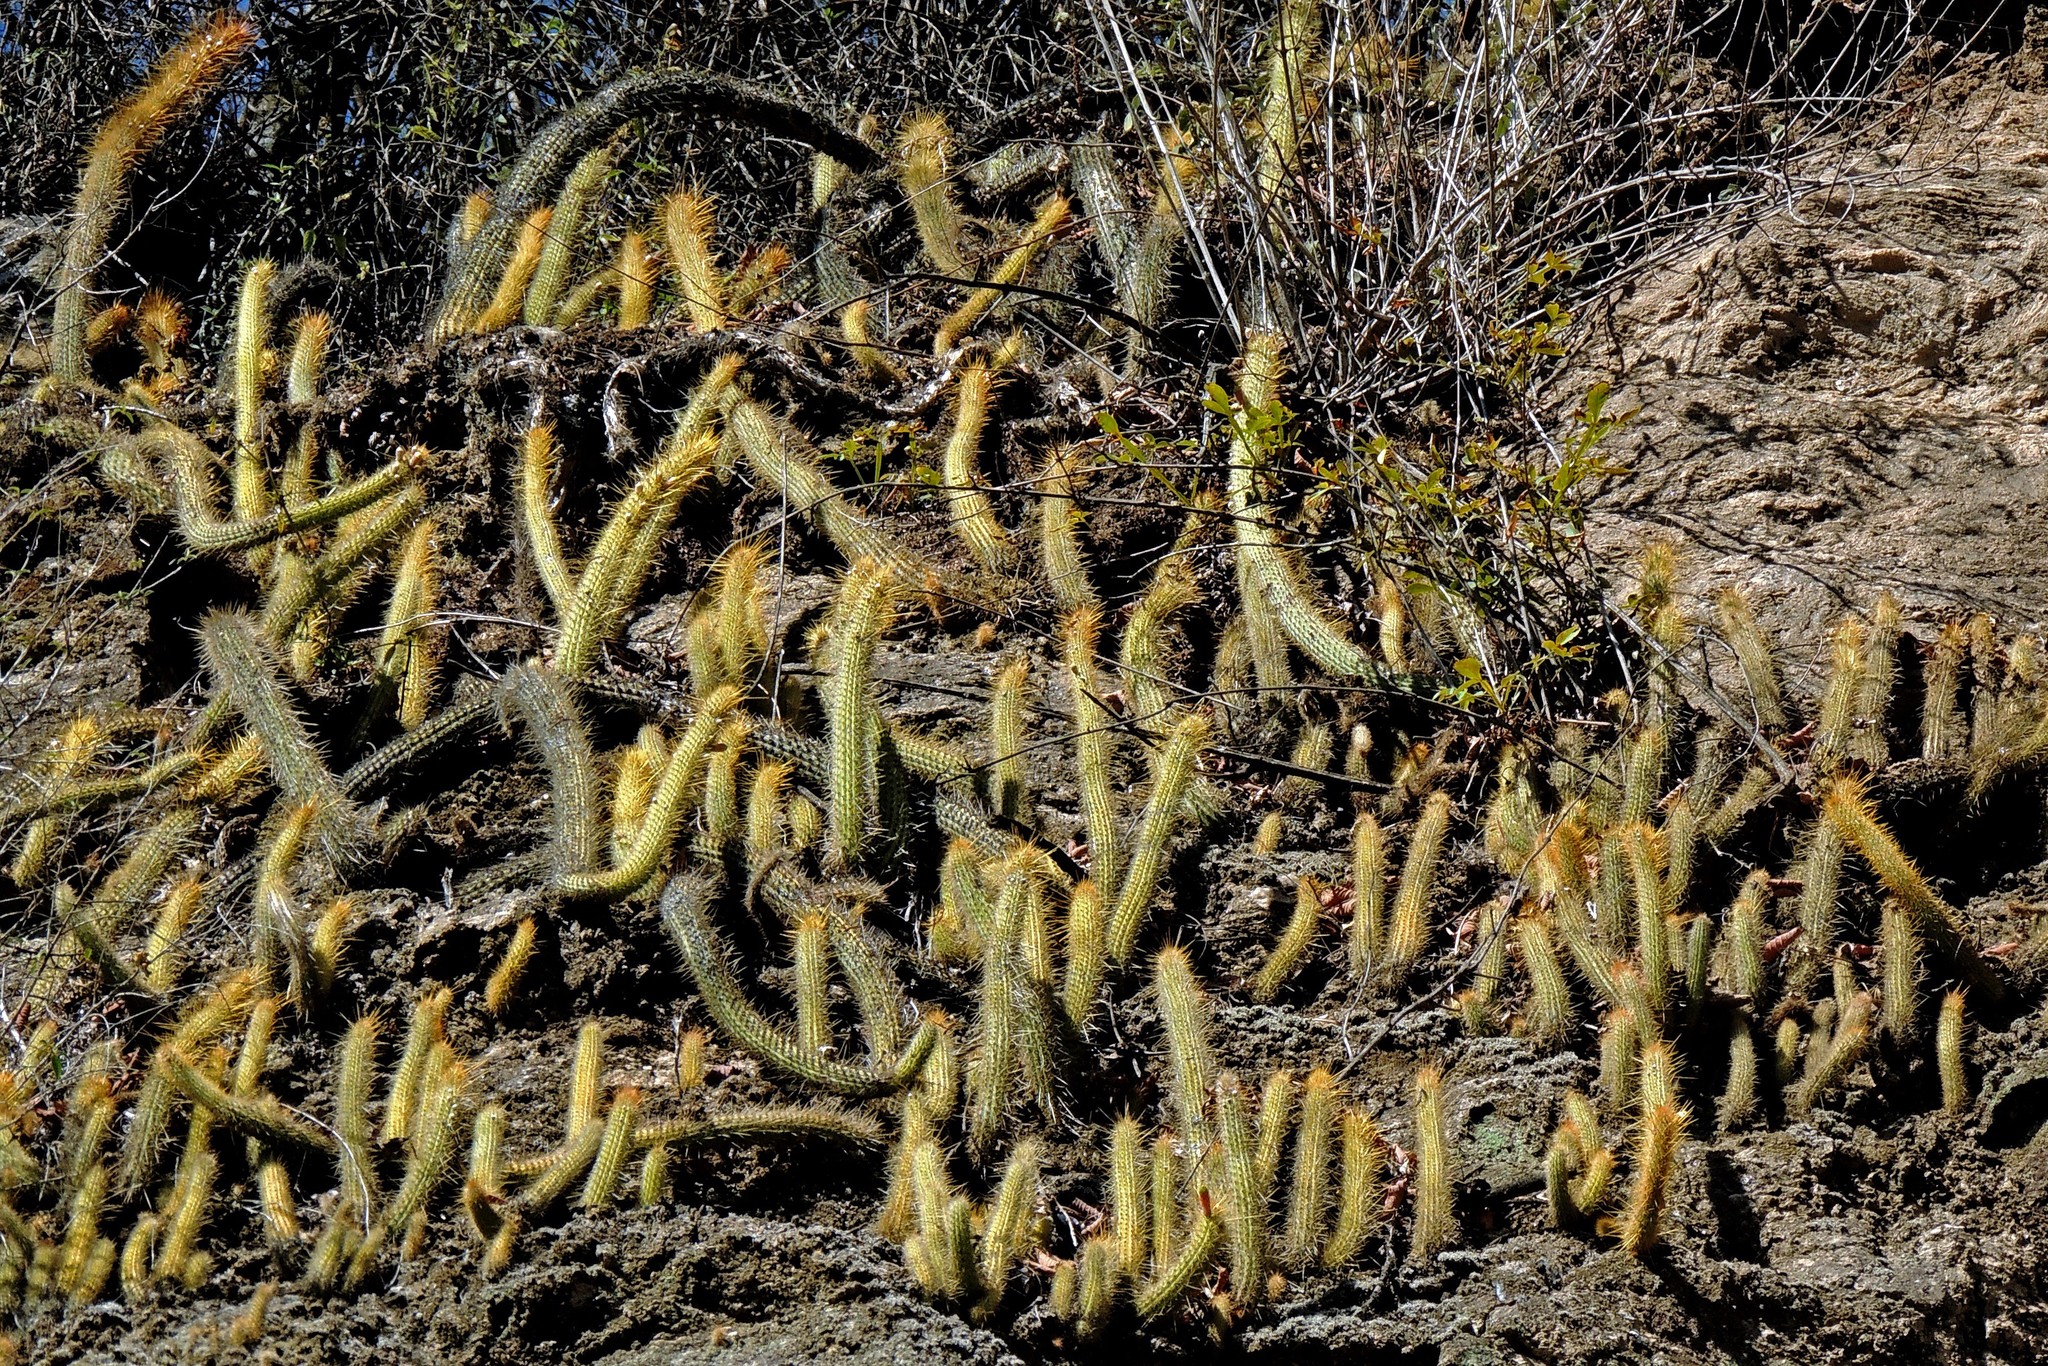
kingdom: Plantae
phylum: Tracheophyta
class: Magnoliopsida
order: Caryophyllales
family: Cactaceae
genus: Cleistocactus
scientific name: Cleistocactus smaragdiflorus
